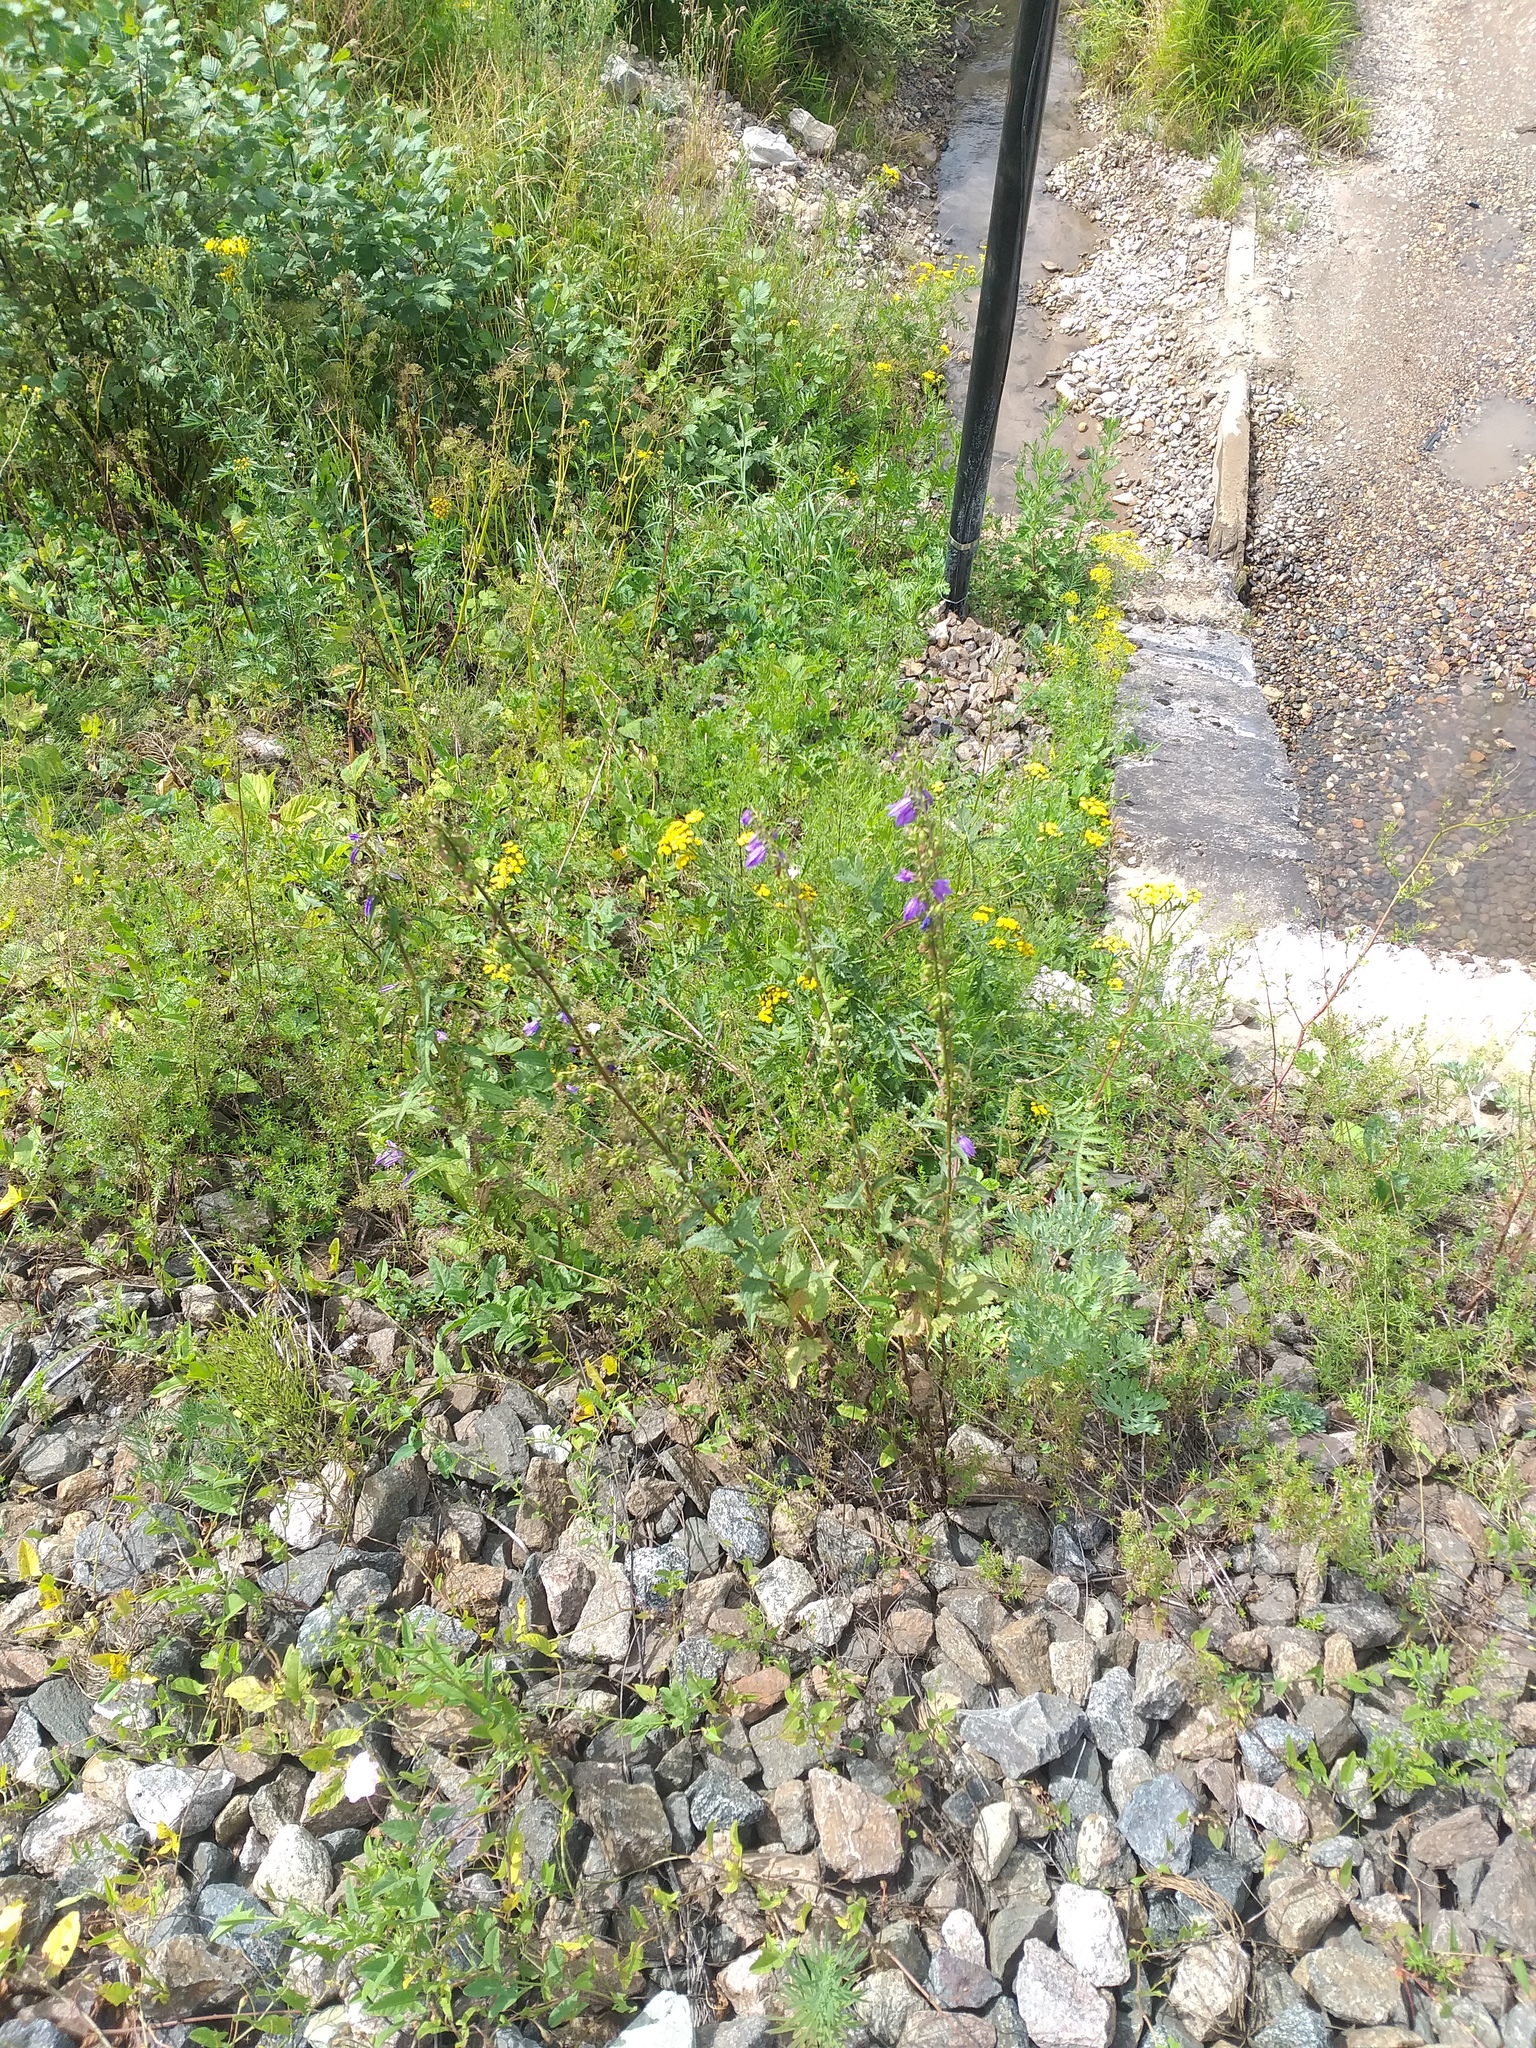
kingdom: Plantae
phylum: Tracheophyta
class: Magnoliopsida
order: Asterales
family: Campanulaceae
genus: Campanula
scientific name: Campanula rapunculoides
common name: Creeping bellflower
